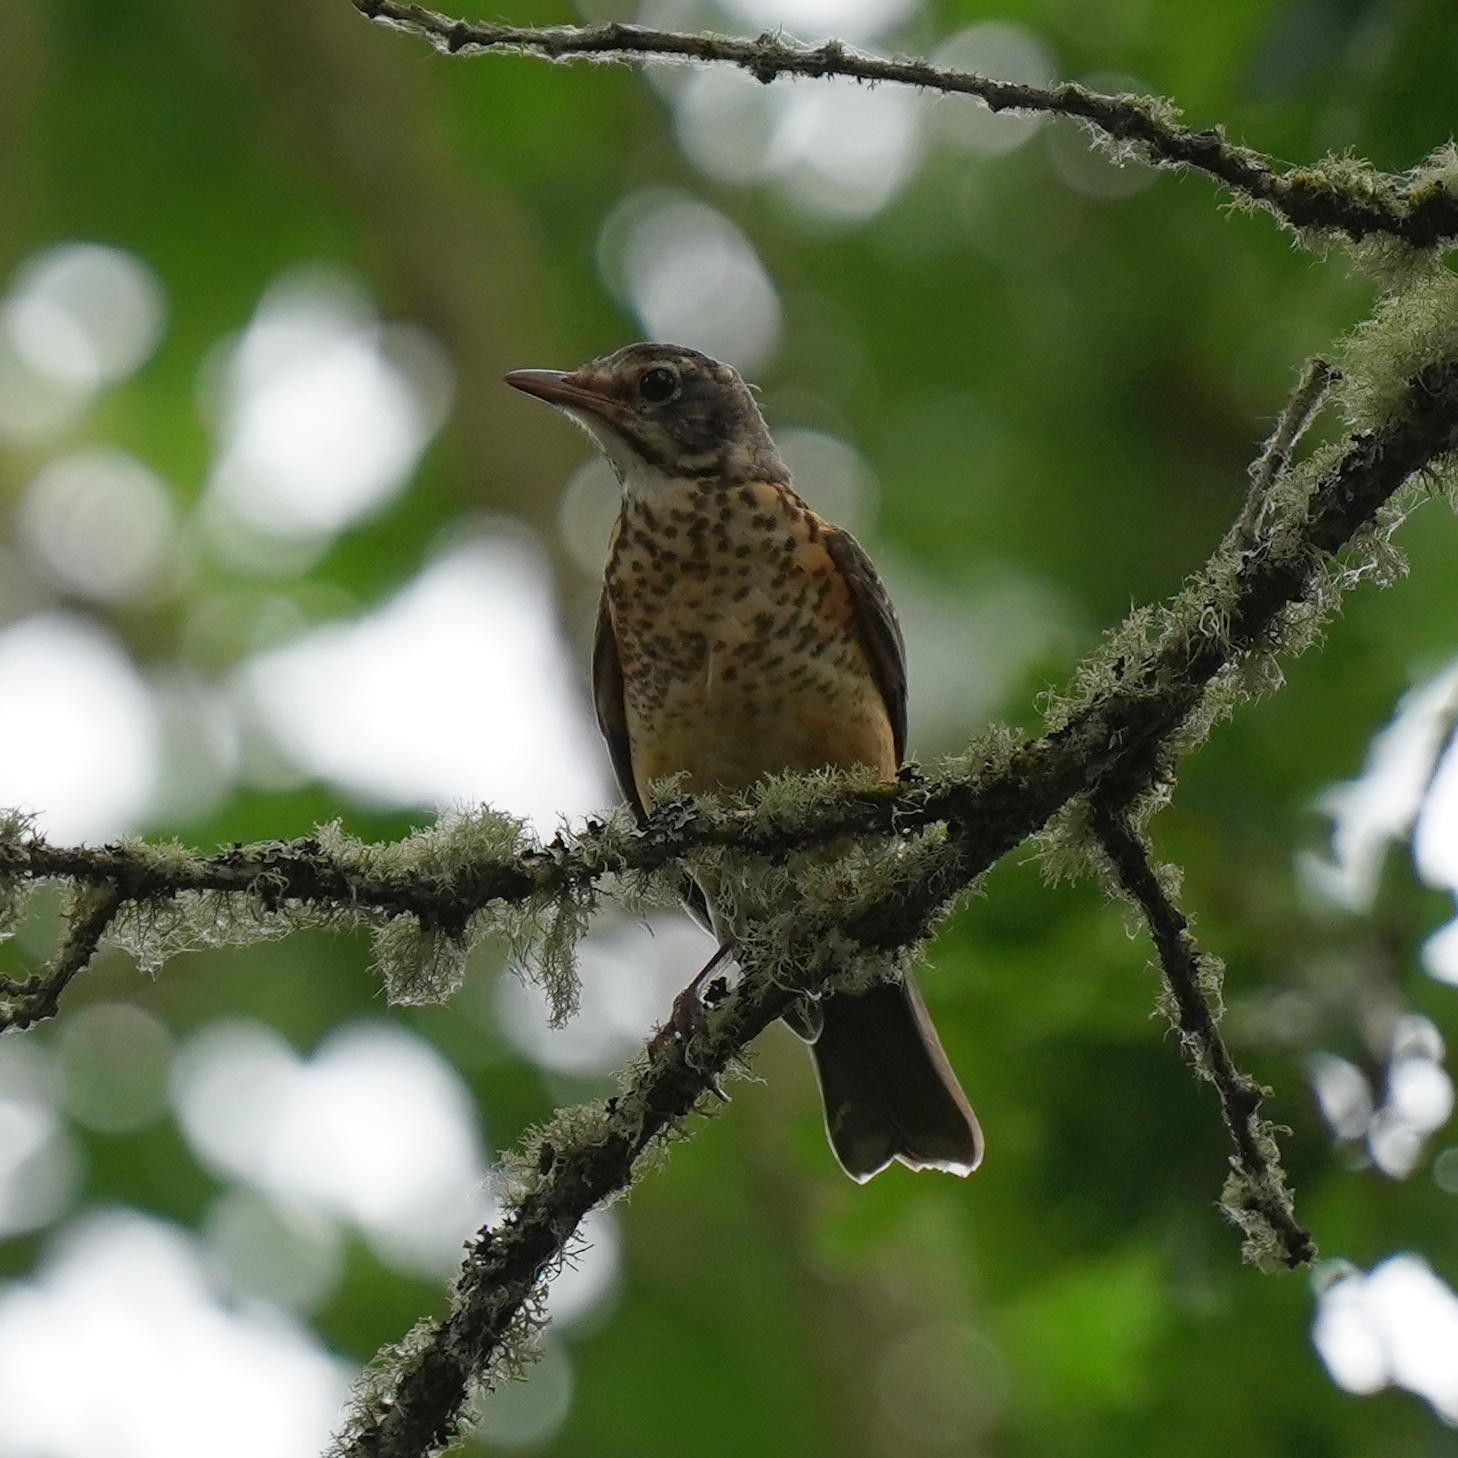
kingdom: Animalia
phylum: Chordata
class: Aves
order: Passeriformes
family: Turdidae
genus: Turdus
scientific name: Turdus migratorius
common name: American robin
